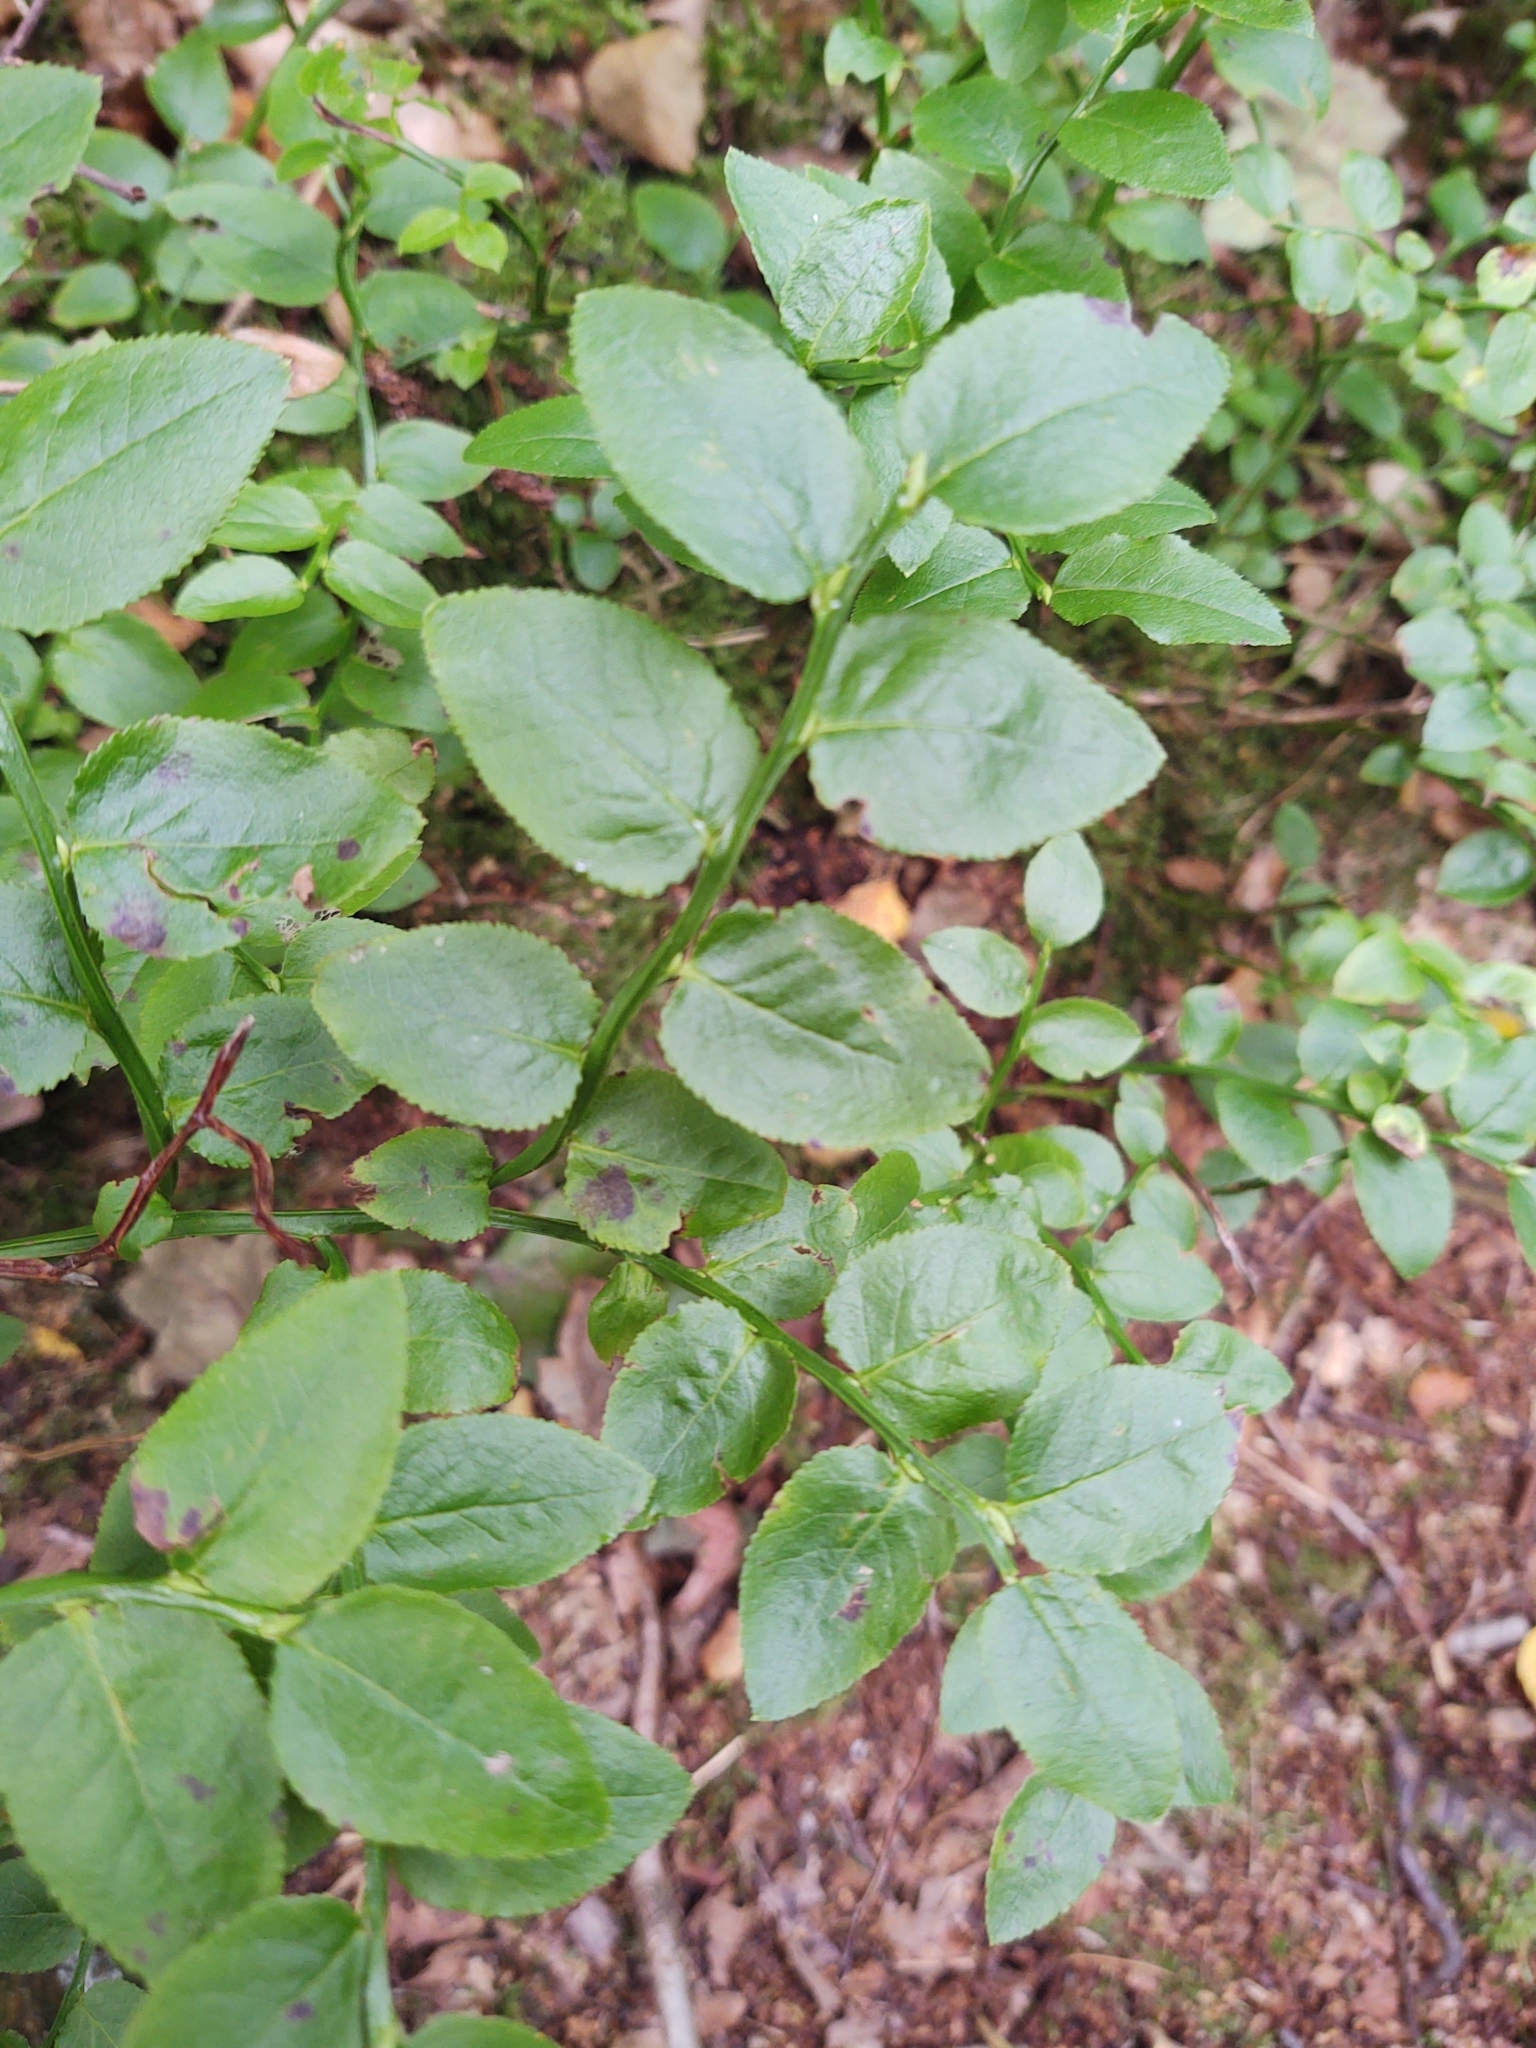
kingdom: Plantae
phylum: Tracheophyta
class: Magnoliopsida
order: Ericales
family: Ericaceae
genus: Vaccinium
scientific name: Vaccinium myrtillus
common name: Bilberry
